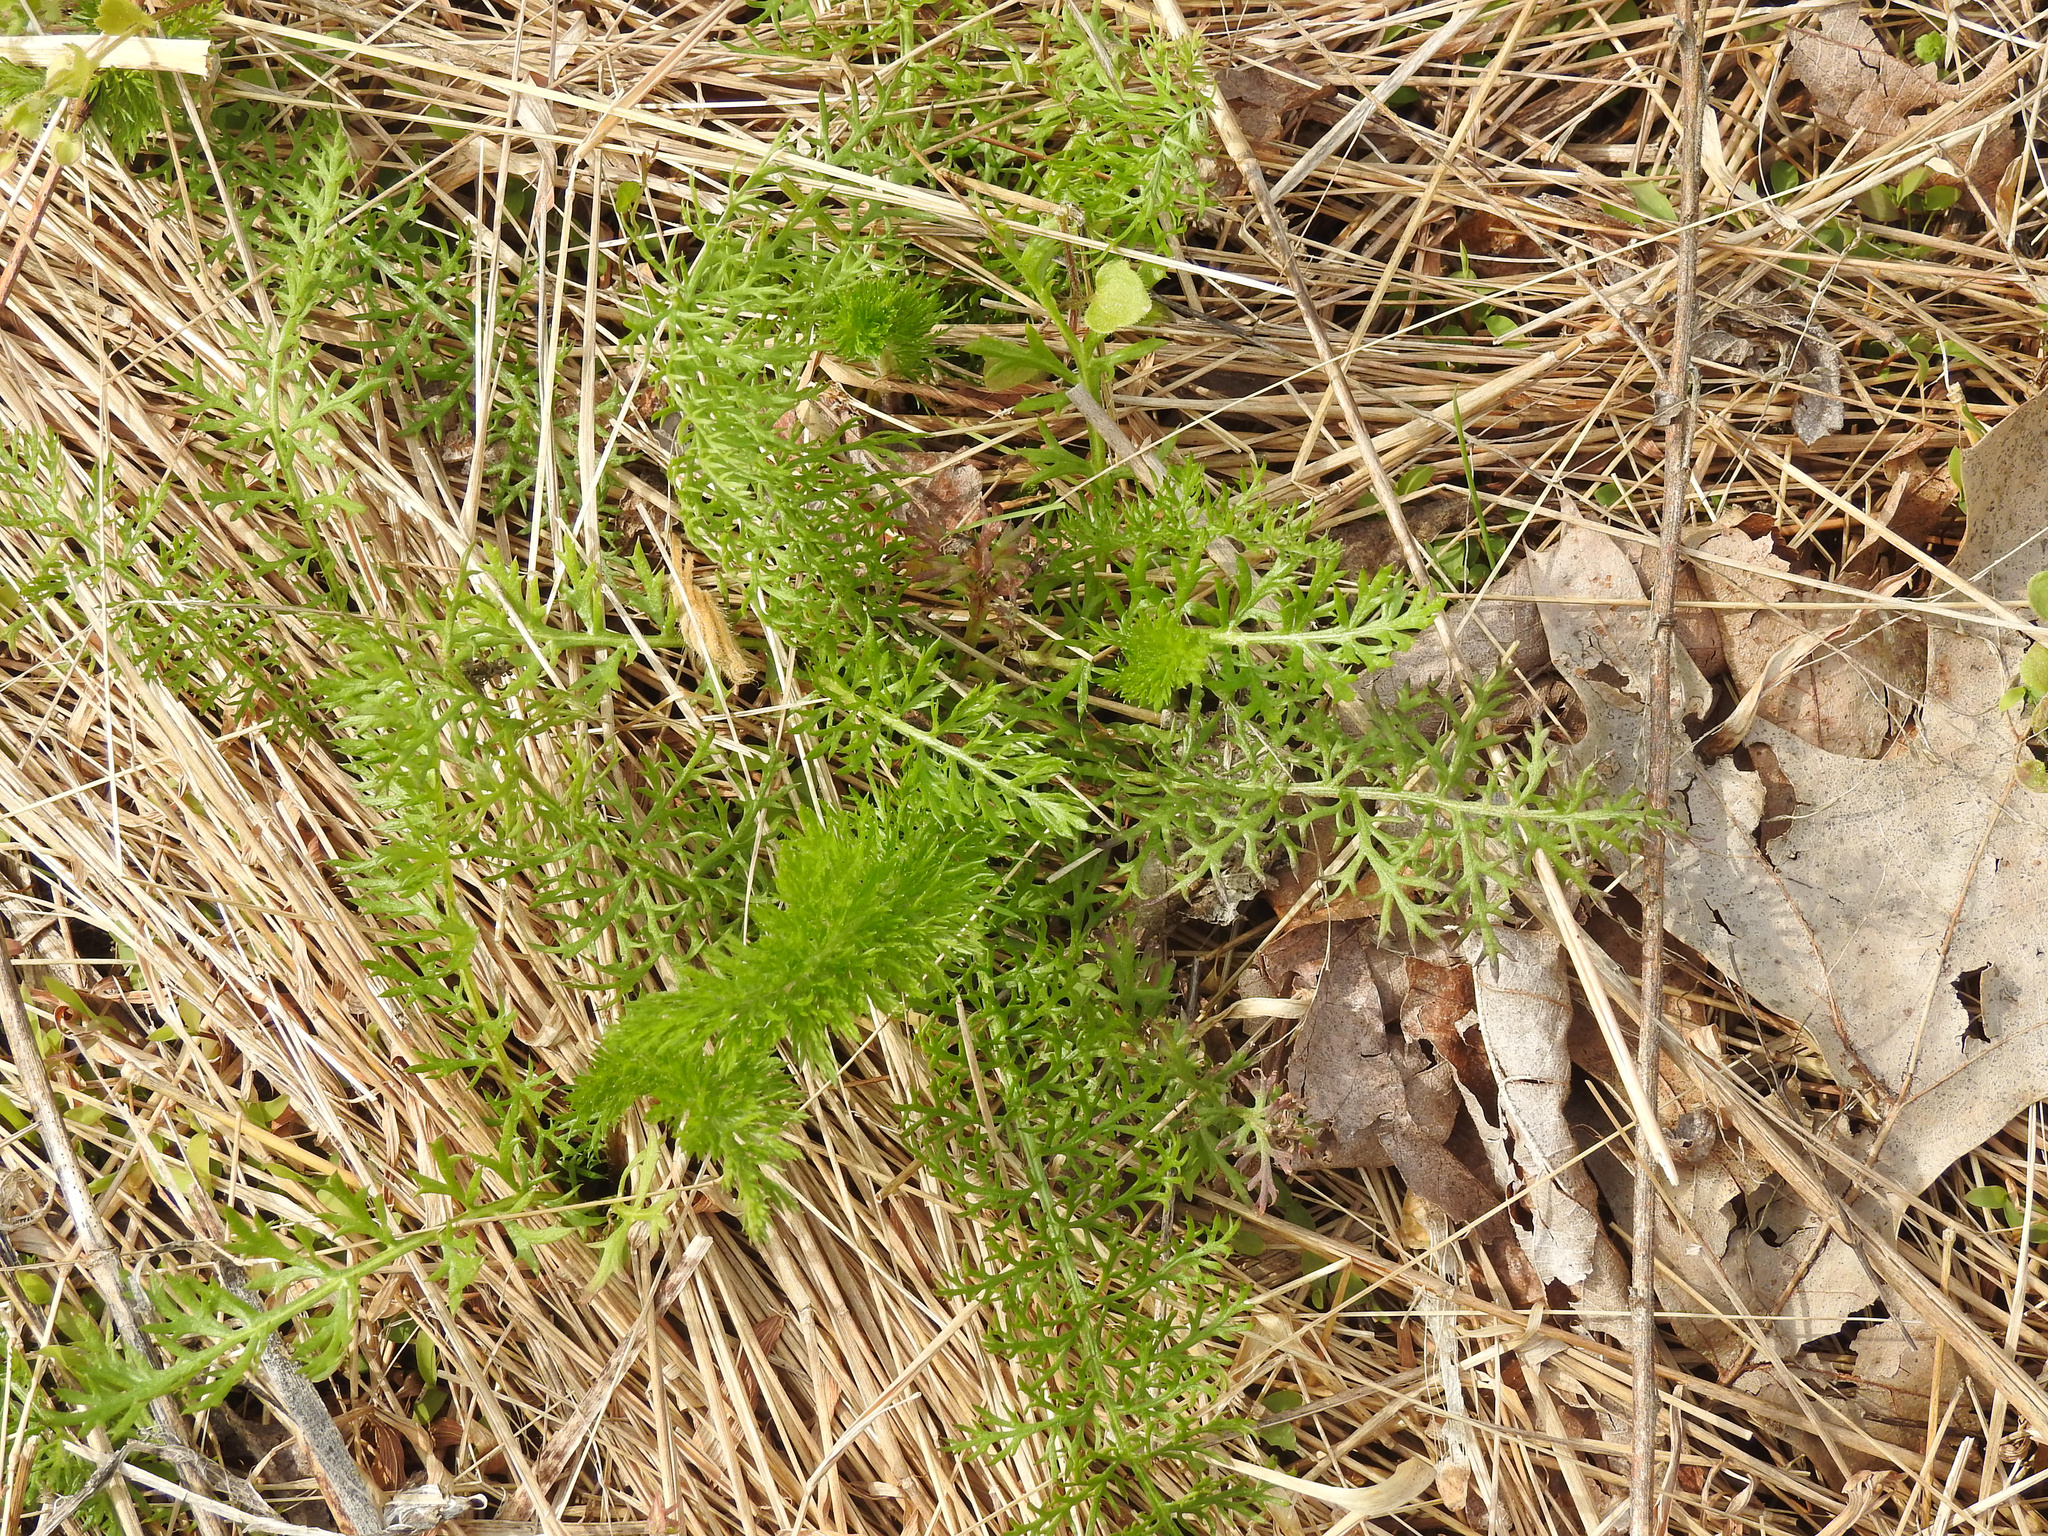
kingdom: Plantae
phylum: Tracheophyta
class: Magnoliopsida
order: Asterales
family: Asteraceae
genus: Achillea
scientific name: Achillea millefolium
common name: Yarrow
